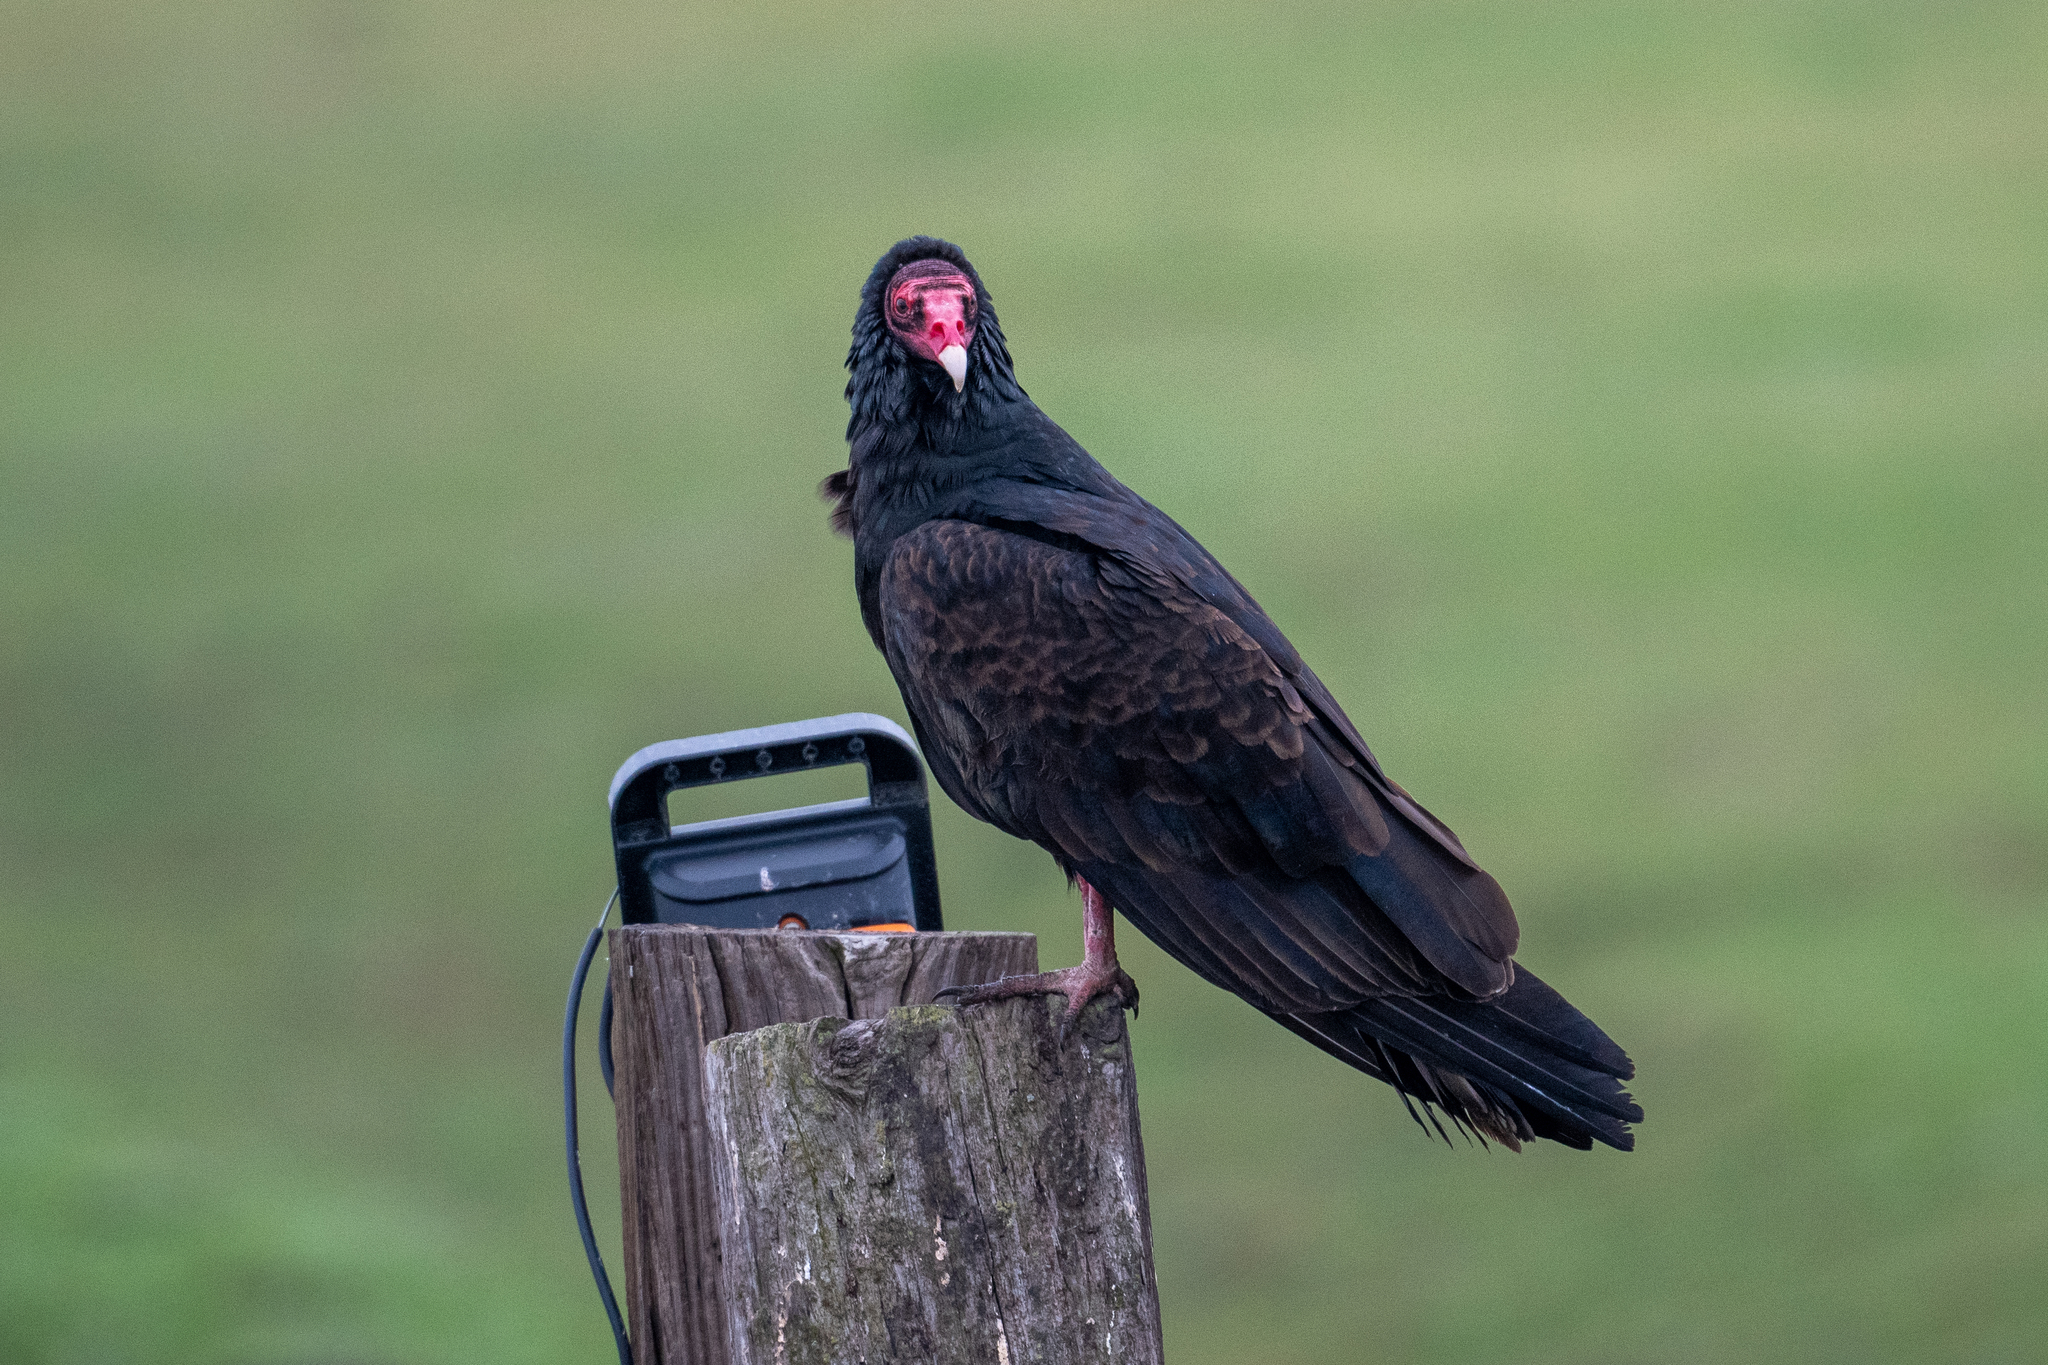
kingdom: Animalia
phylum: Chordata
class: Aves
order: Accipitriformes
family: Cathartidae
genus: Cathartes
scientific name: Cathartes aura
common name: Turkey vulture
